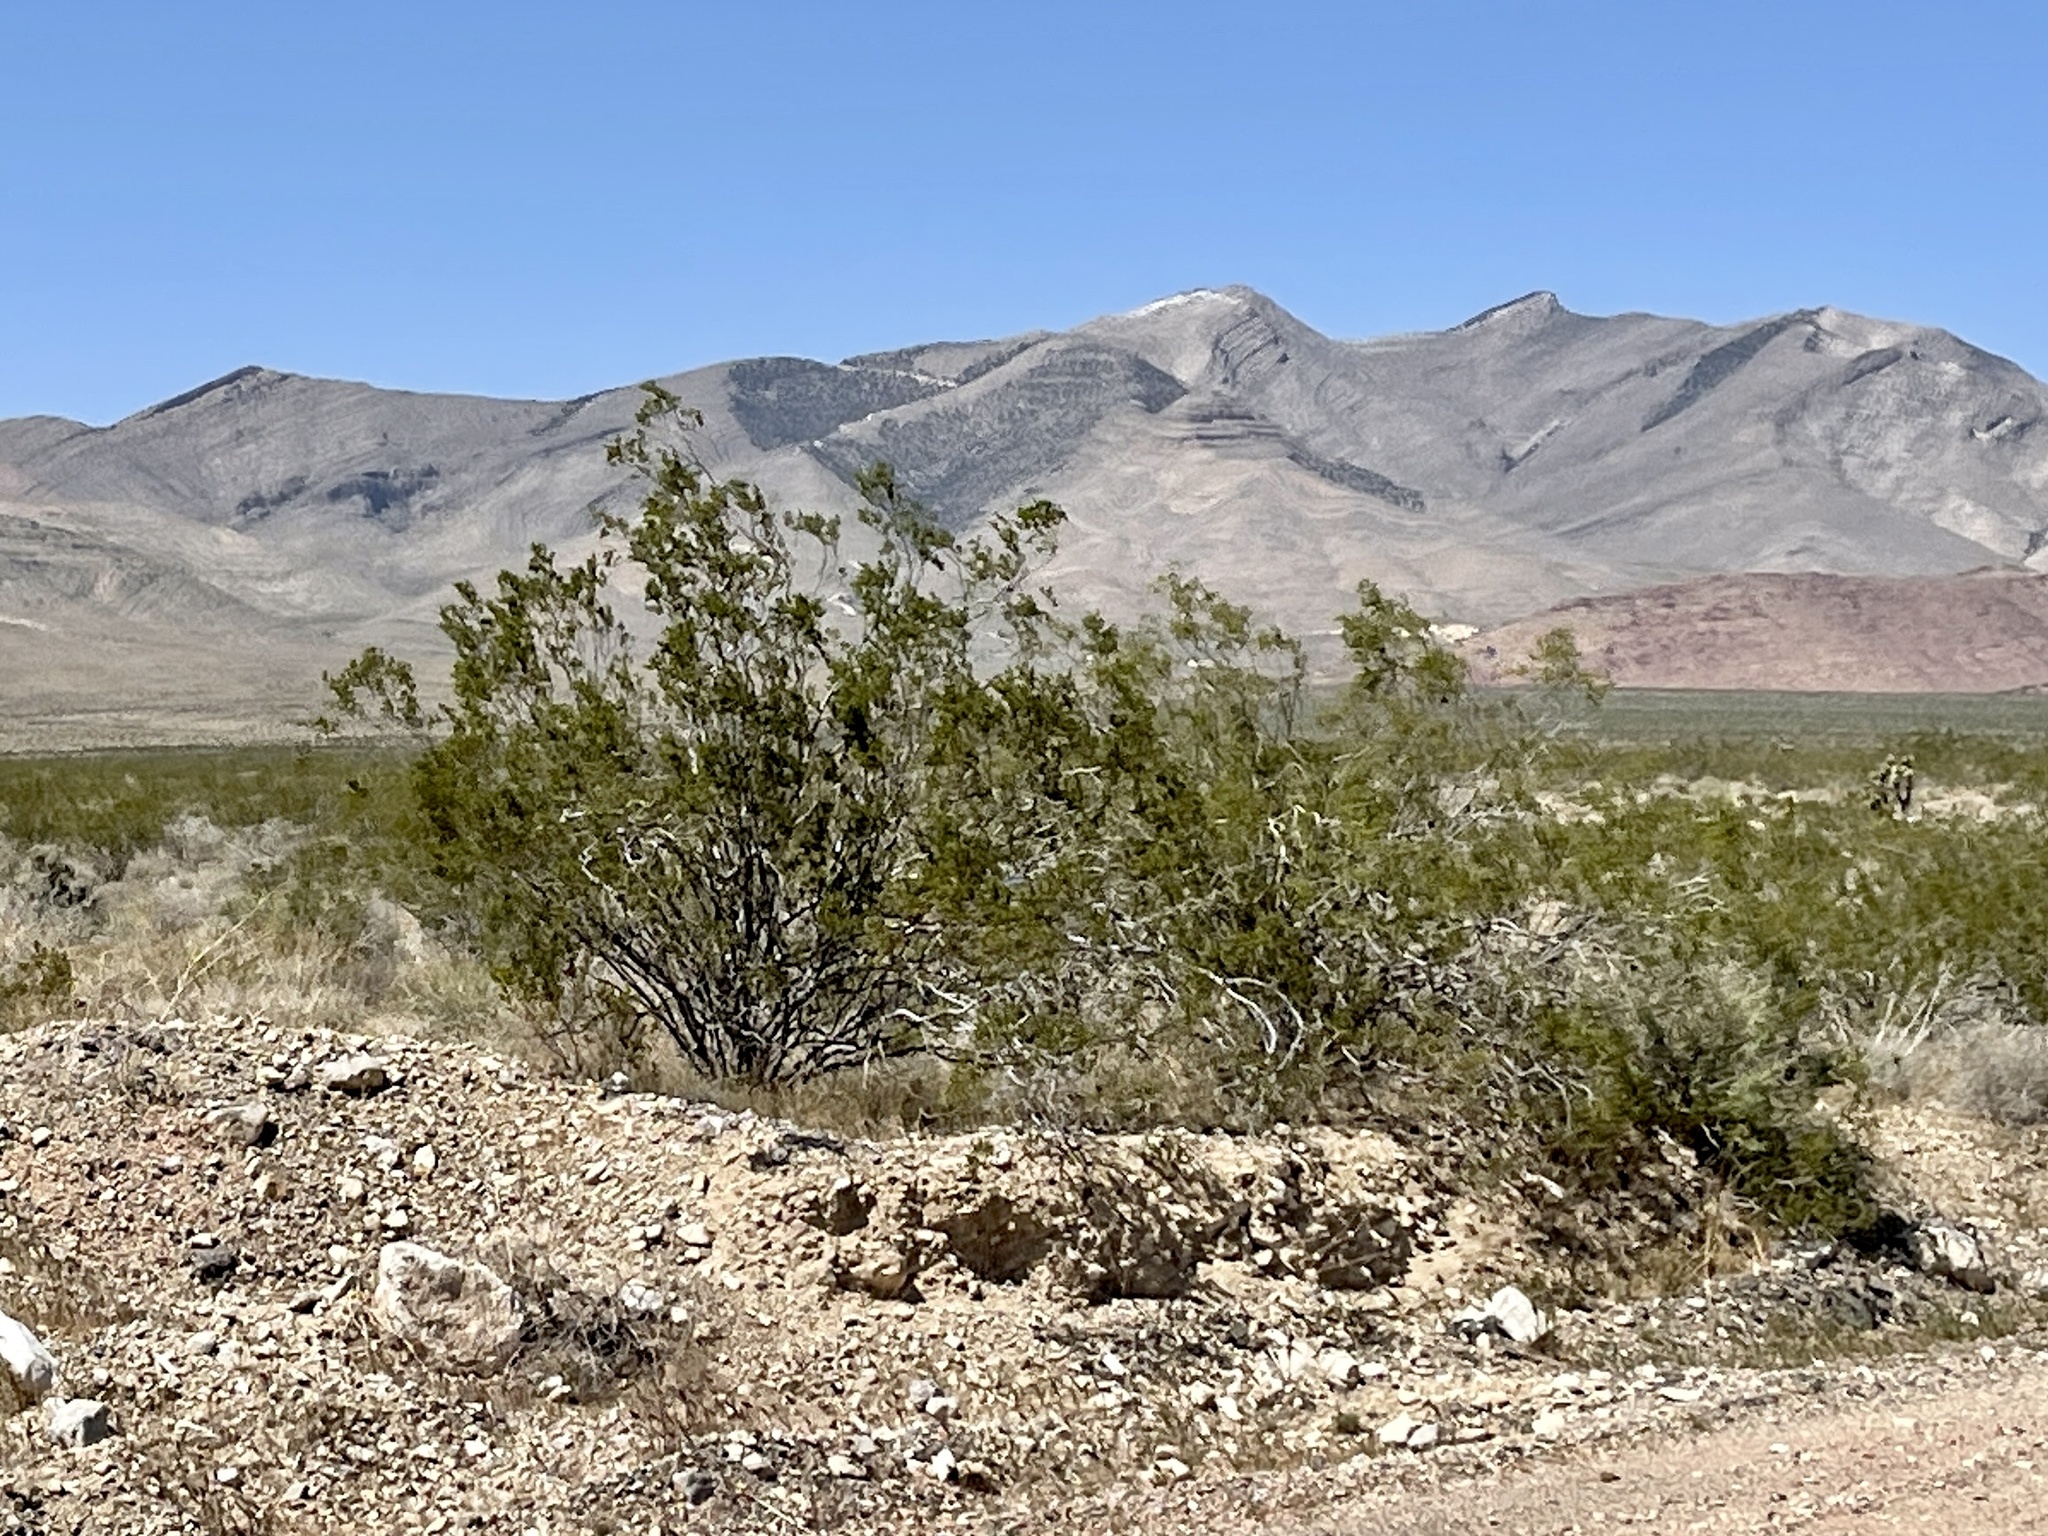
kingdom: Plantae
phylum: Tracheophyta
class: Magnoliopsida
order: Zygophyllales
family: Zygophyllaceae
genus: Larrea
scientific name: Larrea tridentata
